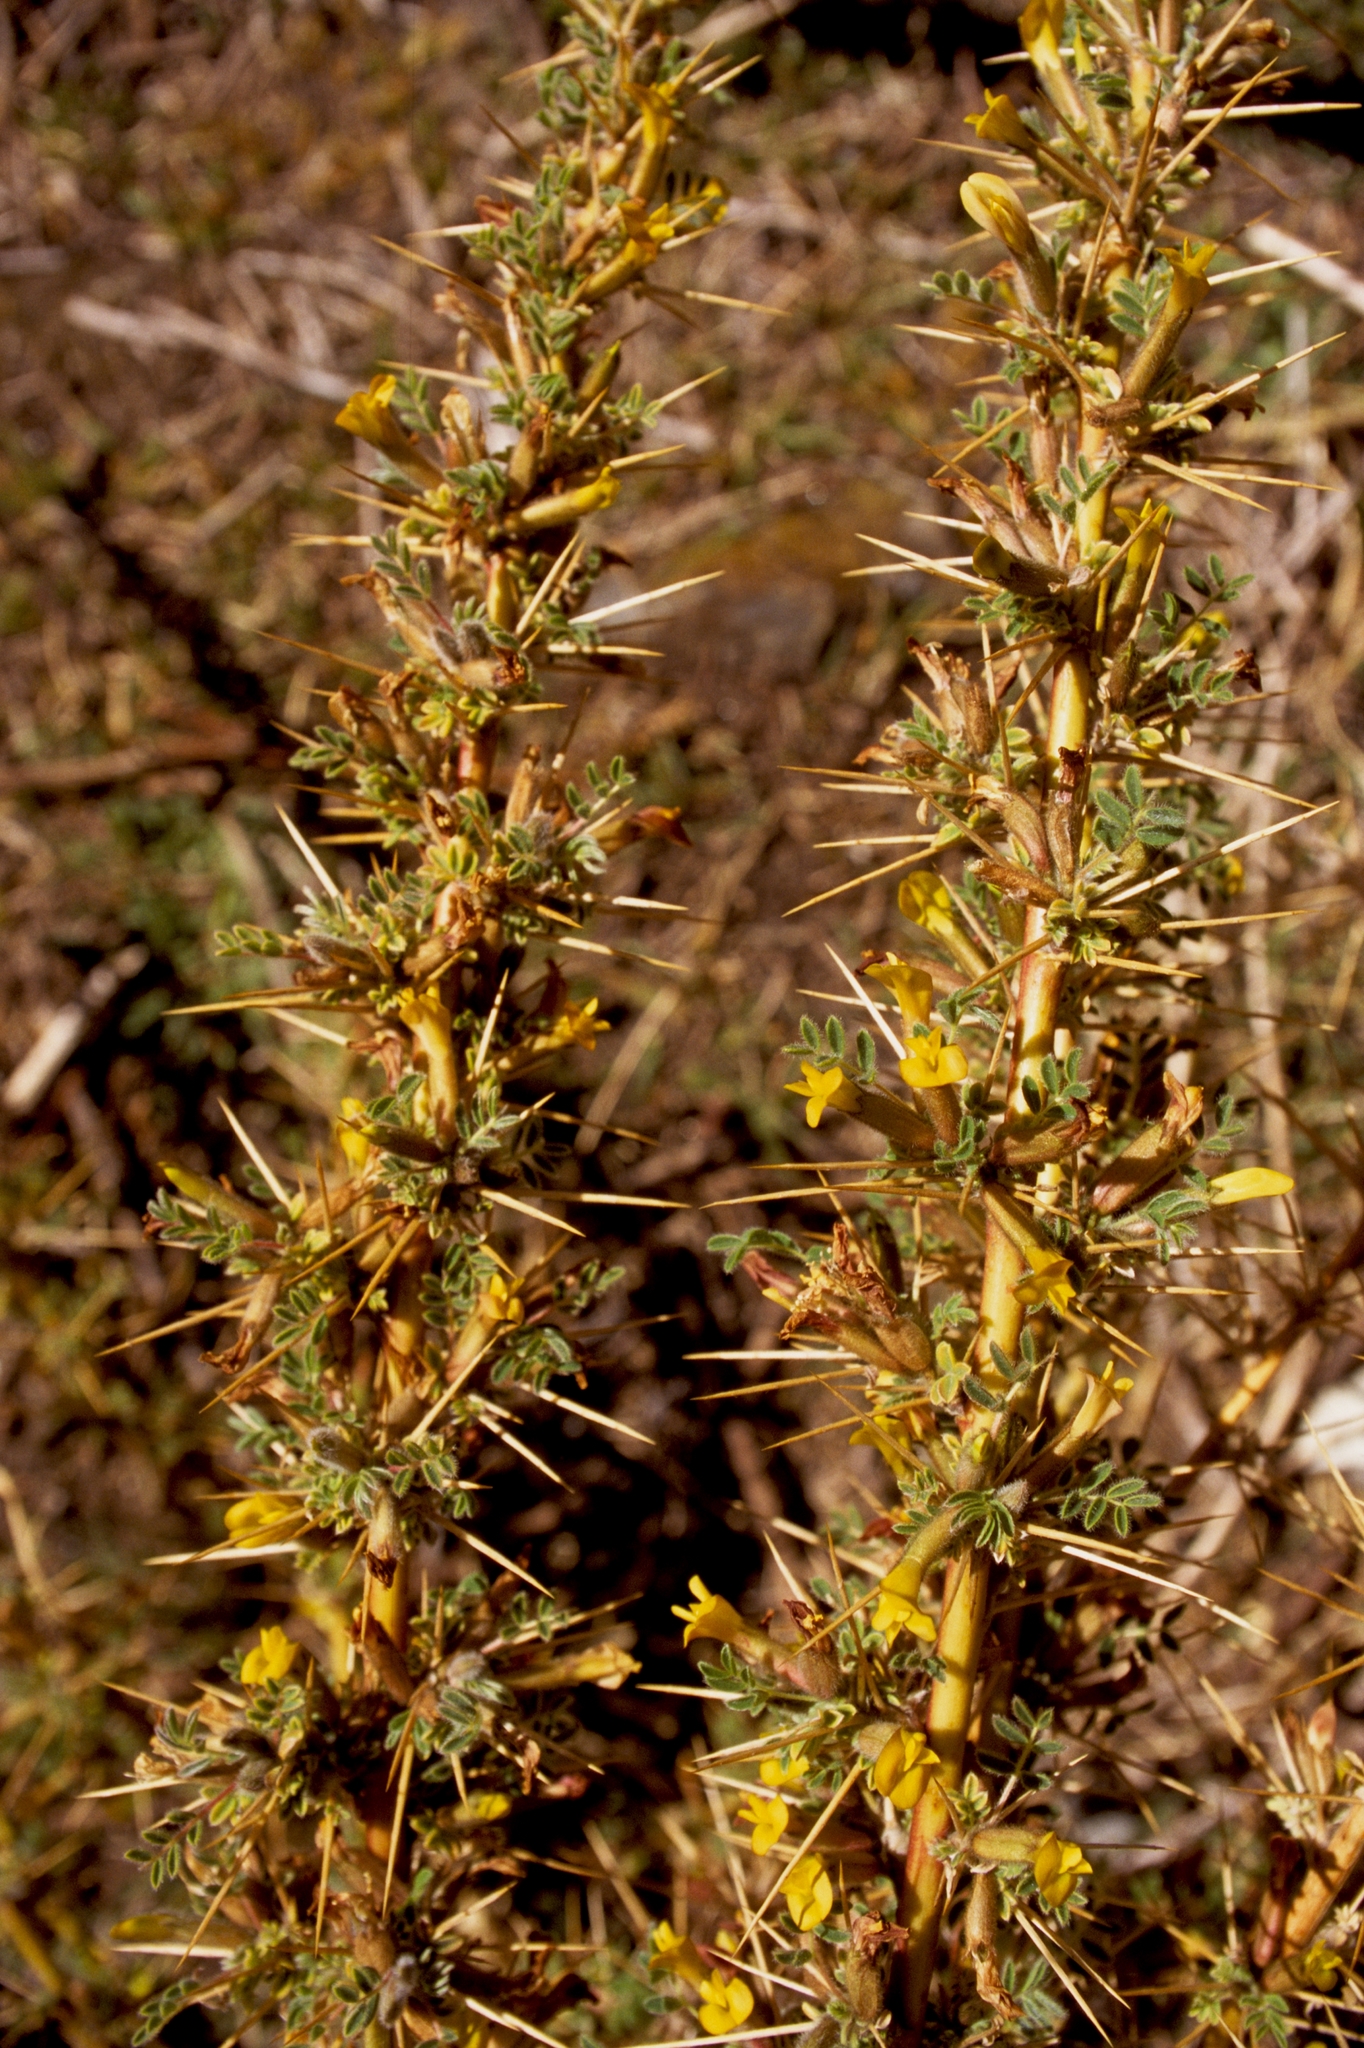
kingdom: Plantae
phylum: Tracheophyta
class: Magnoliopsida
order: Fabales
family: Fabaceae
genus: Caragana
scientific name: Caragana sukiensis
